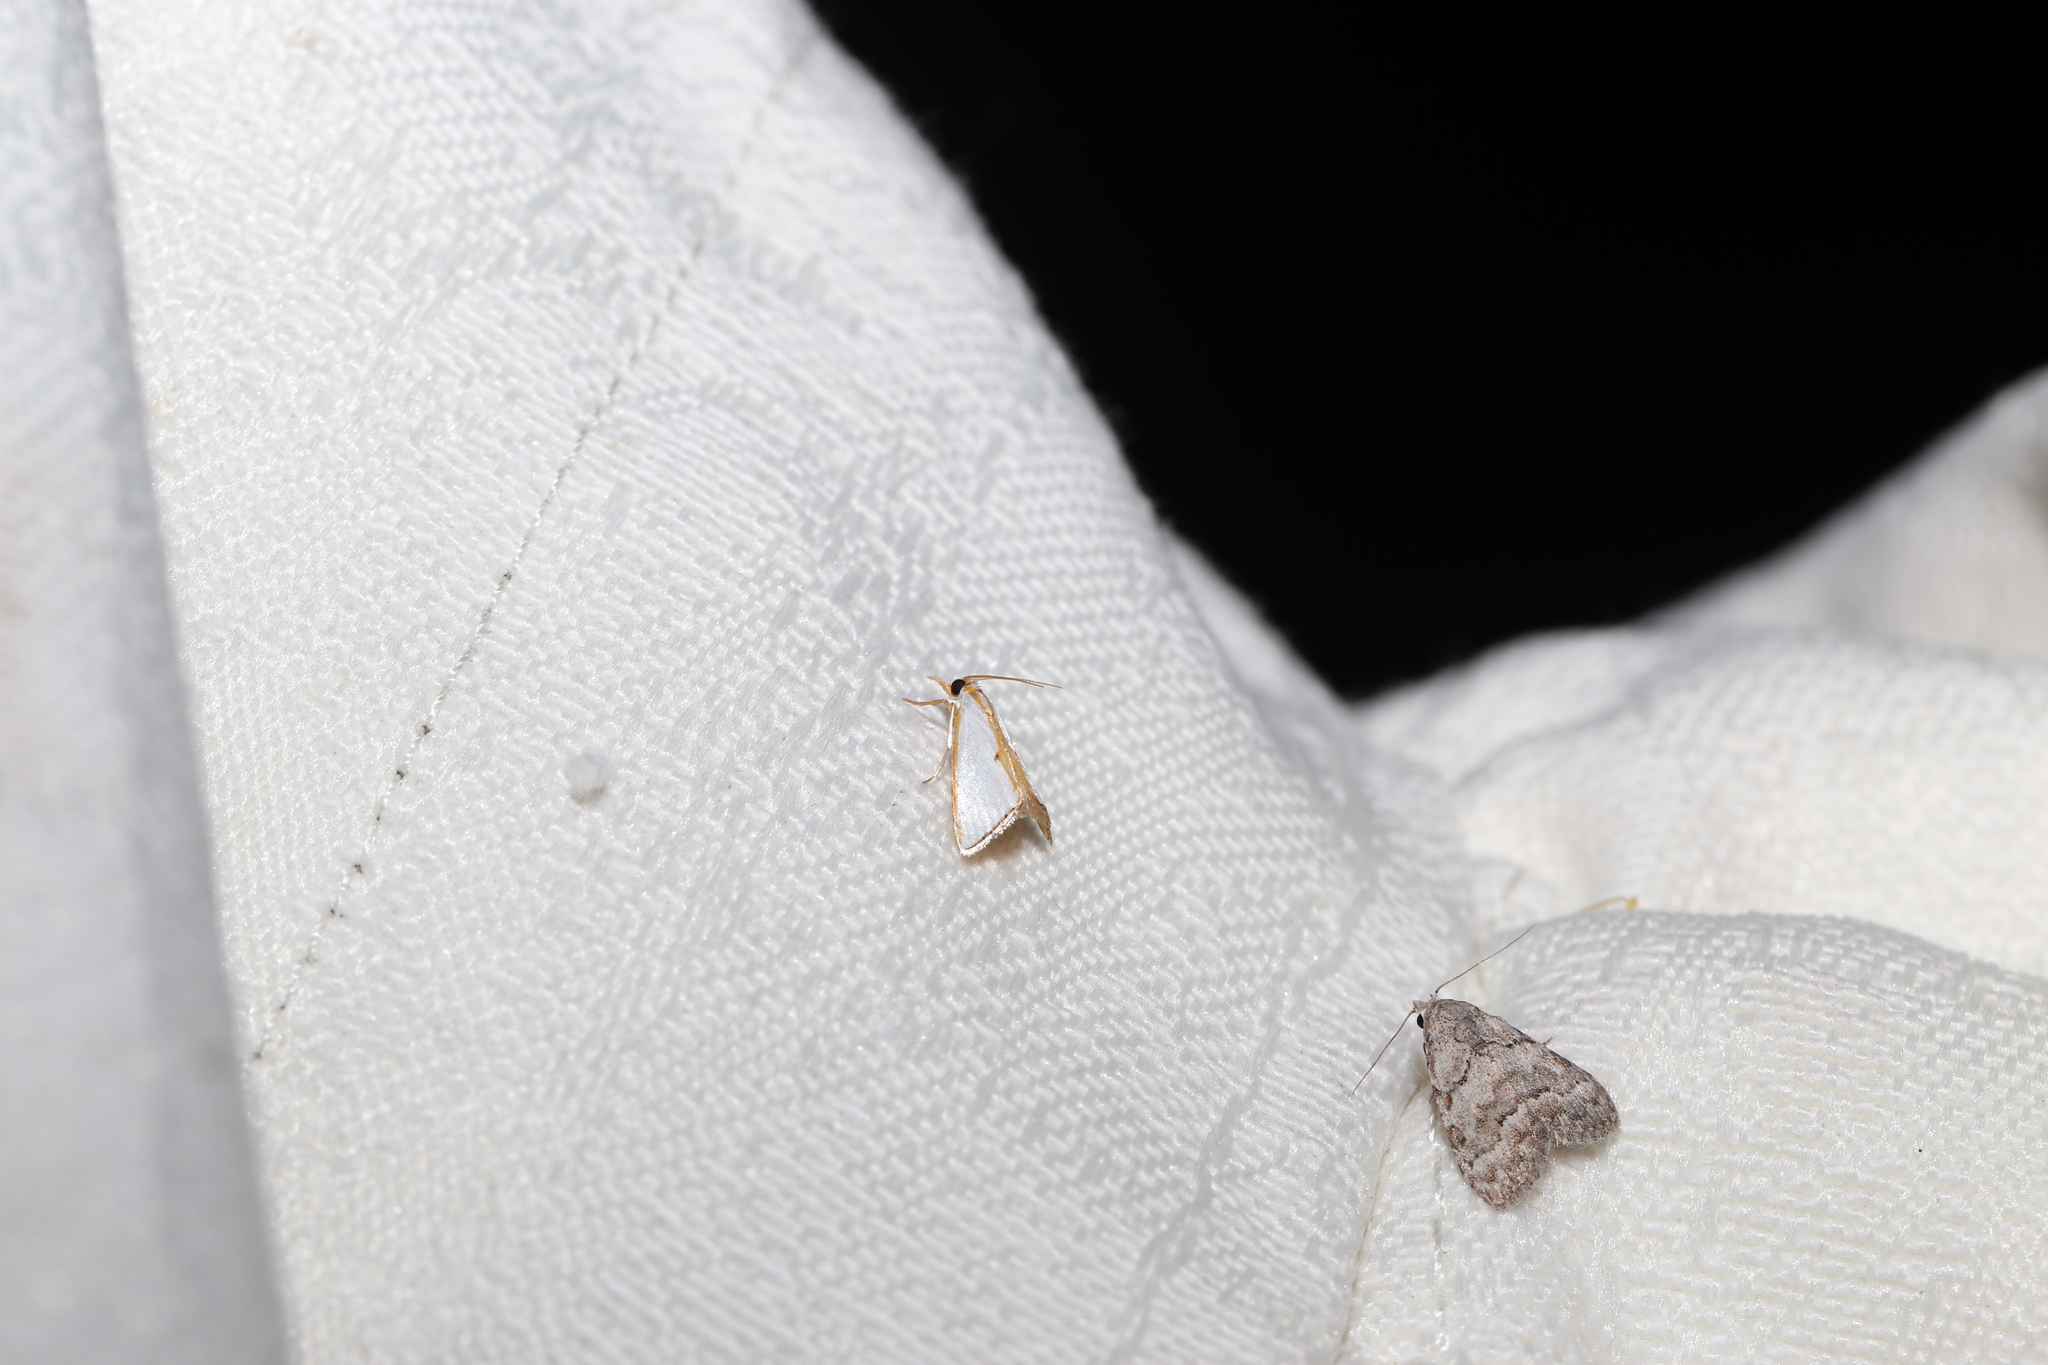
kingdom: Animalia
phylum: Arthropoda
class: Insecta
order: Lepidoptera
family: Crambidae
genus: Neargyria
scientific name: Neargyria argyraspis
